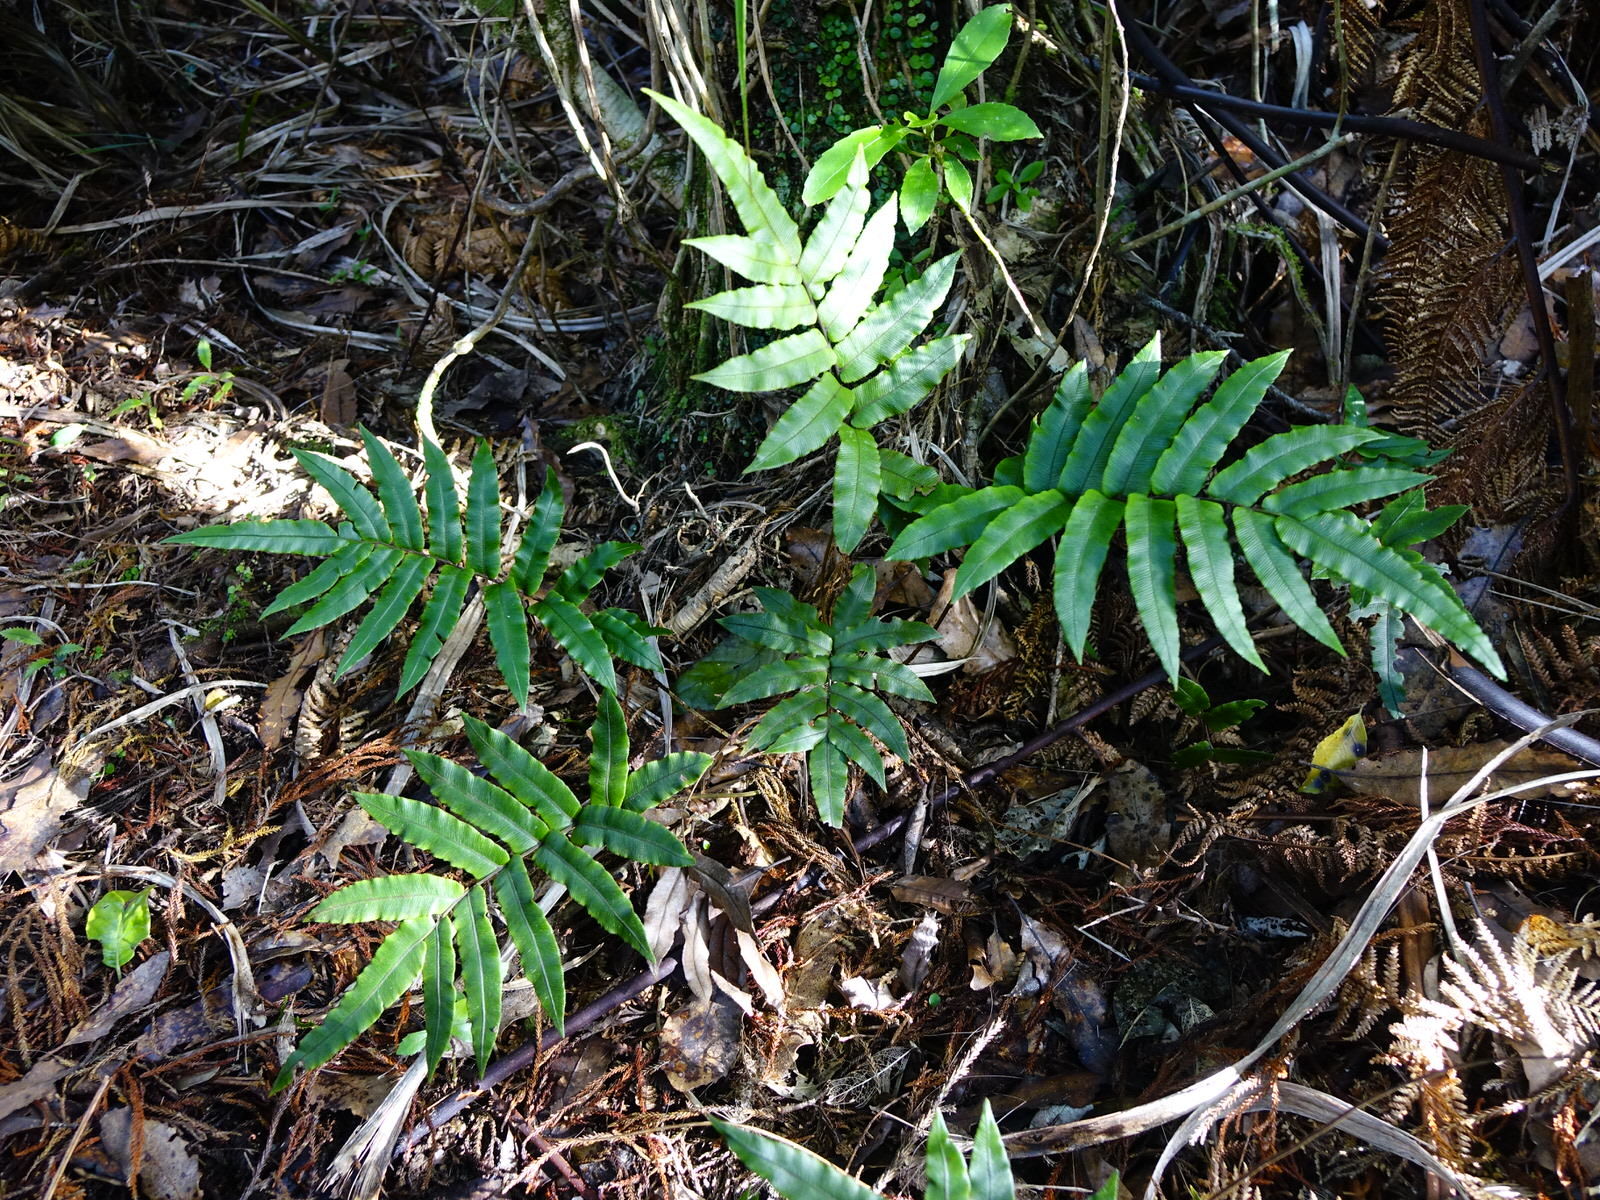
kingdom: Plantae
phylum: Tracheophyta
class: Polypodiopsida
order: Polypodiales
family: Blechnaceae
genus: Parablechnum
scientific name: Parablechnum procerum
